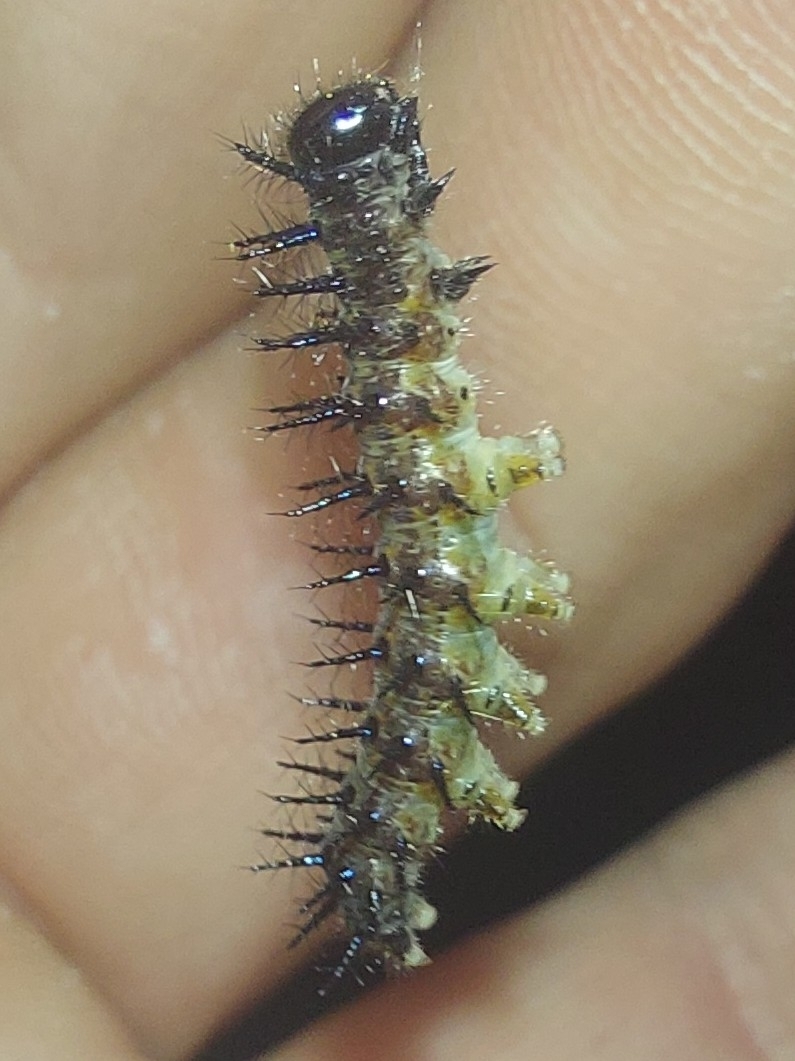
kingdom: Animalia
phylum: Arthropoda
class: Insecta
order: Lepidoptera
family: Nymphalidae
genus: Acraea
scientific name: Acraea horta
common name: Garden acraea
